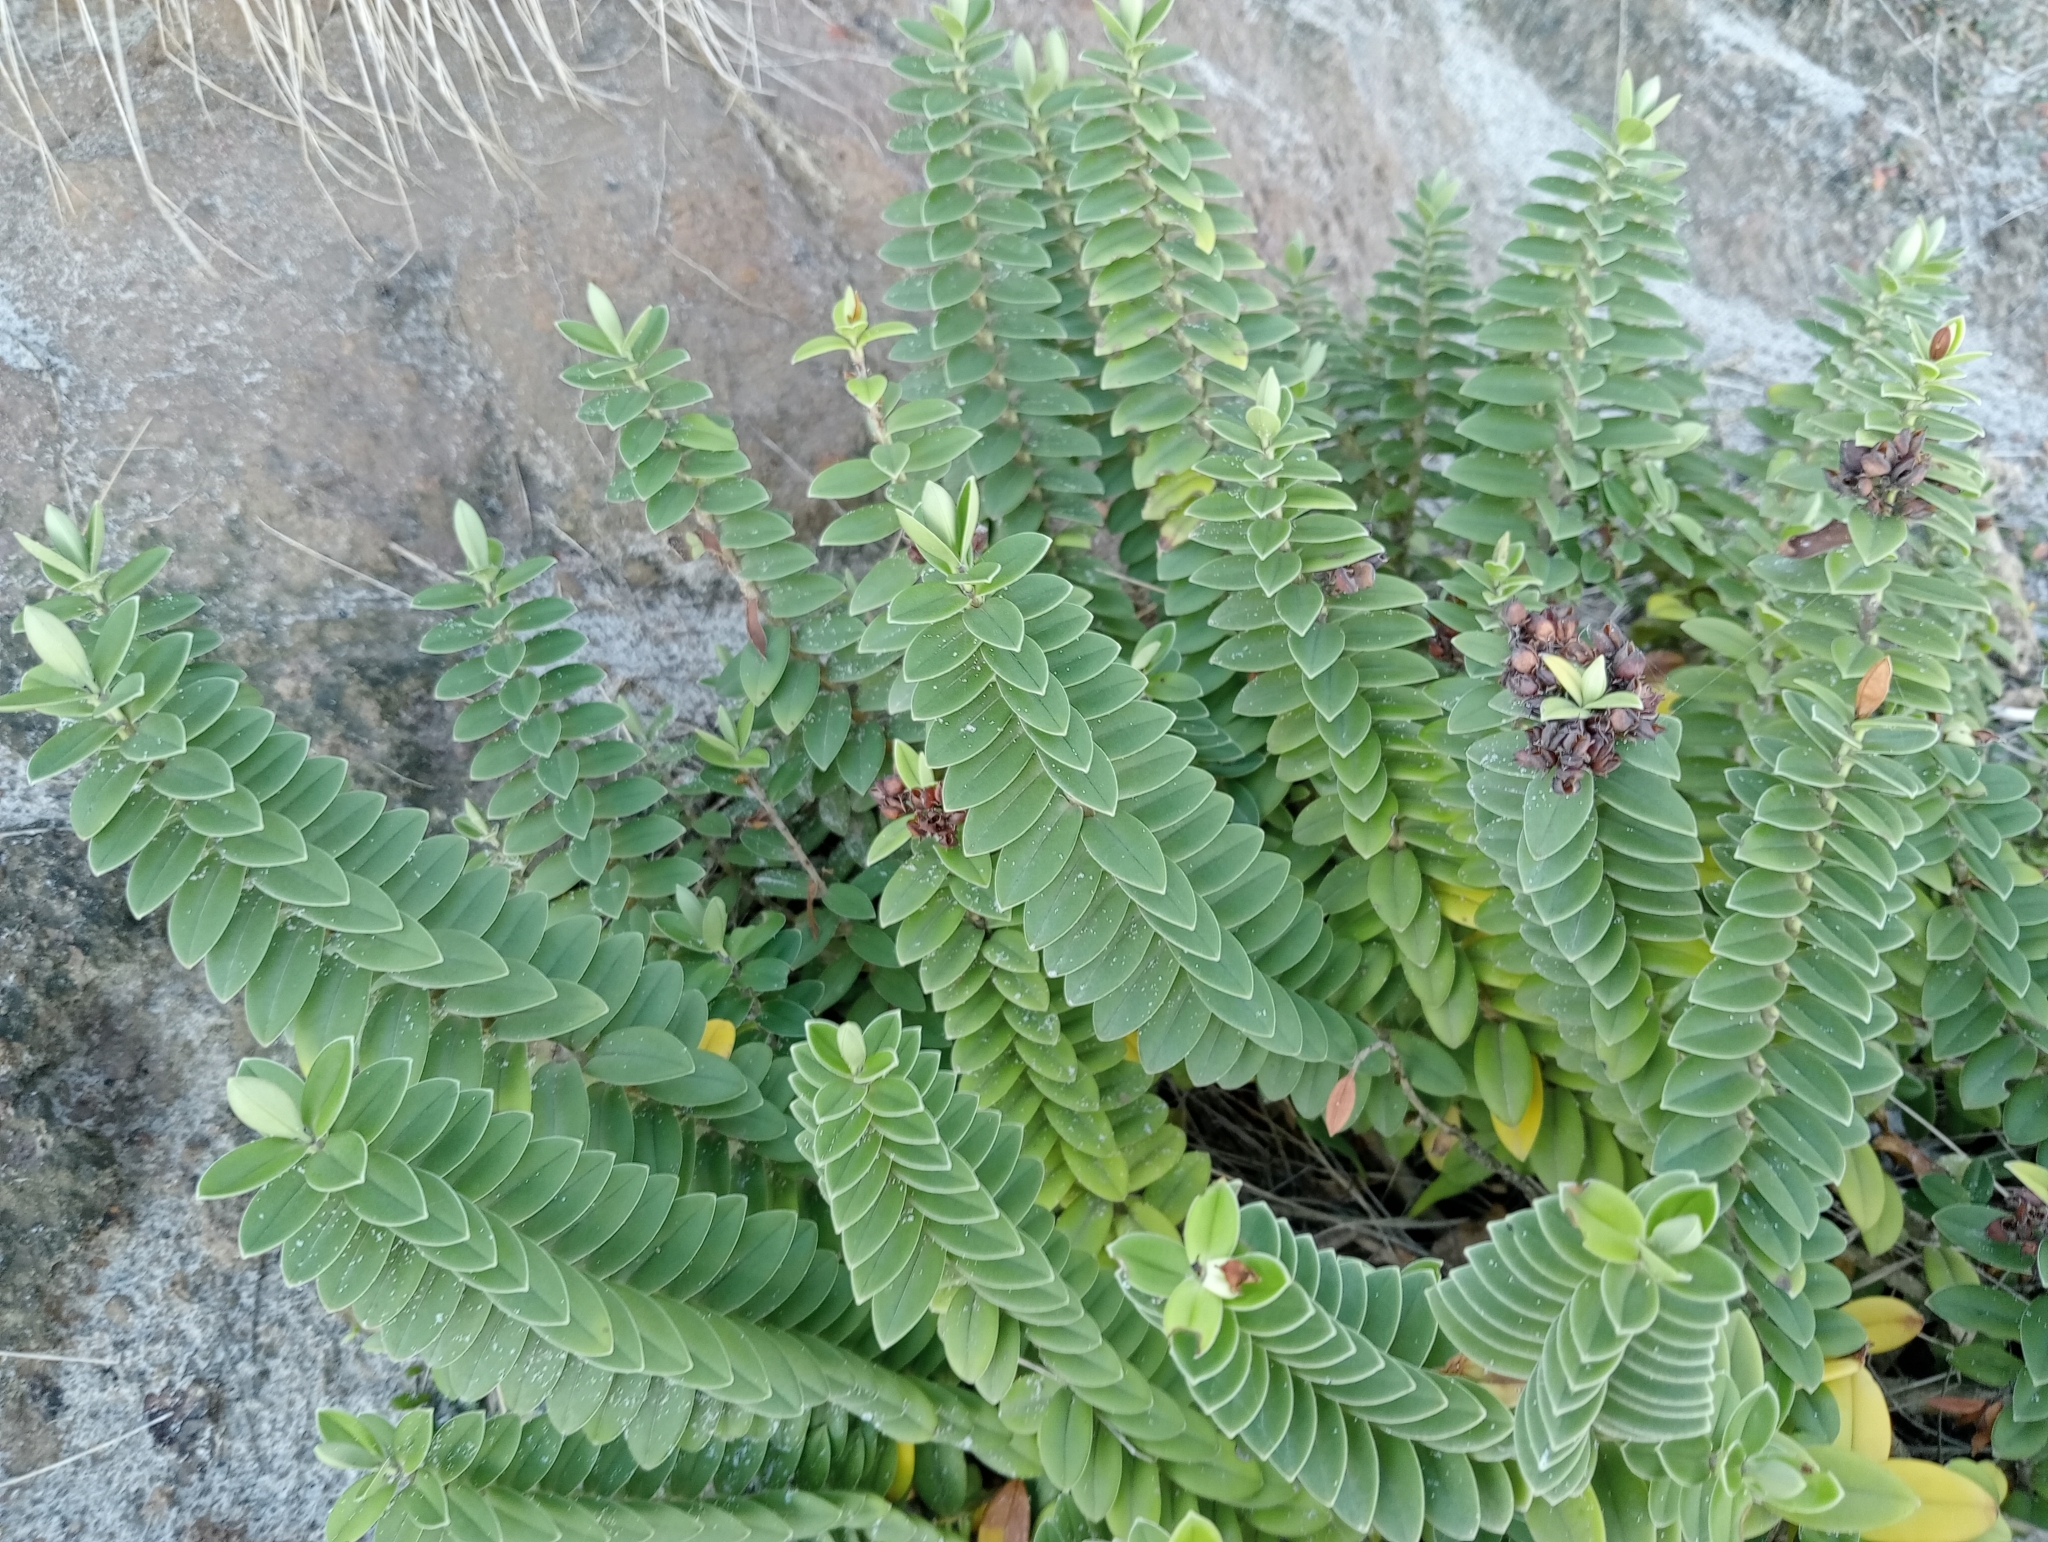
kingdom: Plantae
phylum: Tracheophyta
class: Magnoliopsida
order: Lamiales
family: Plantaginaceae
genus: Veronica
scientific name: Veronica elliptica
